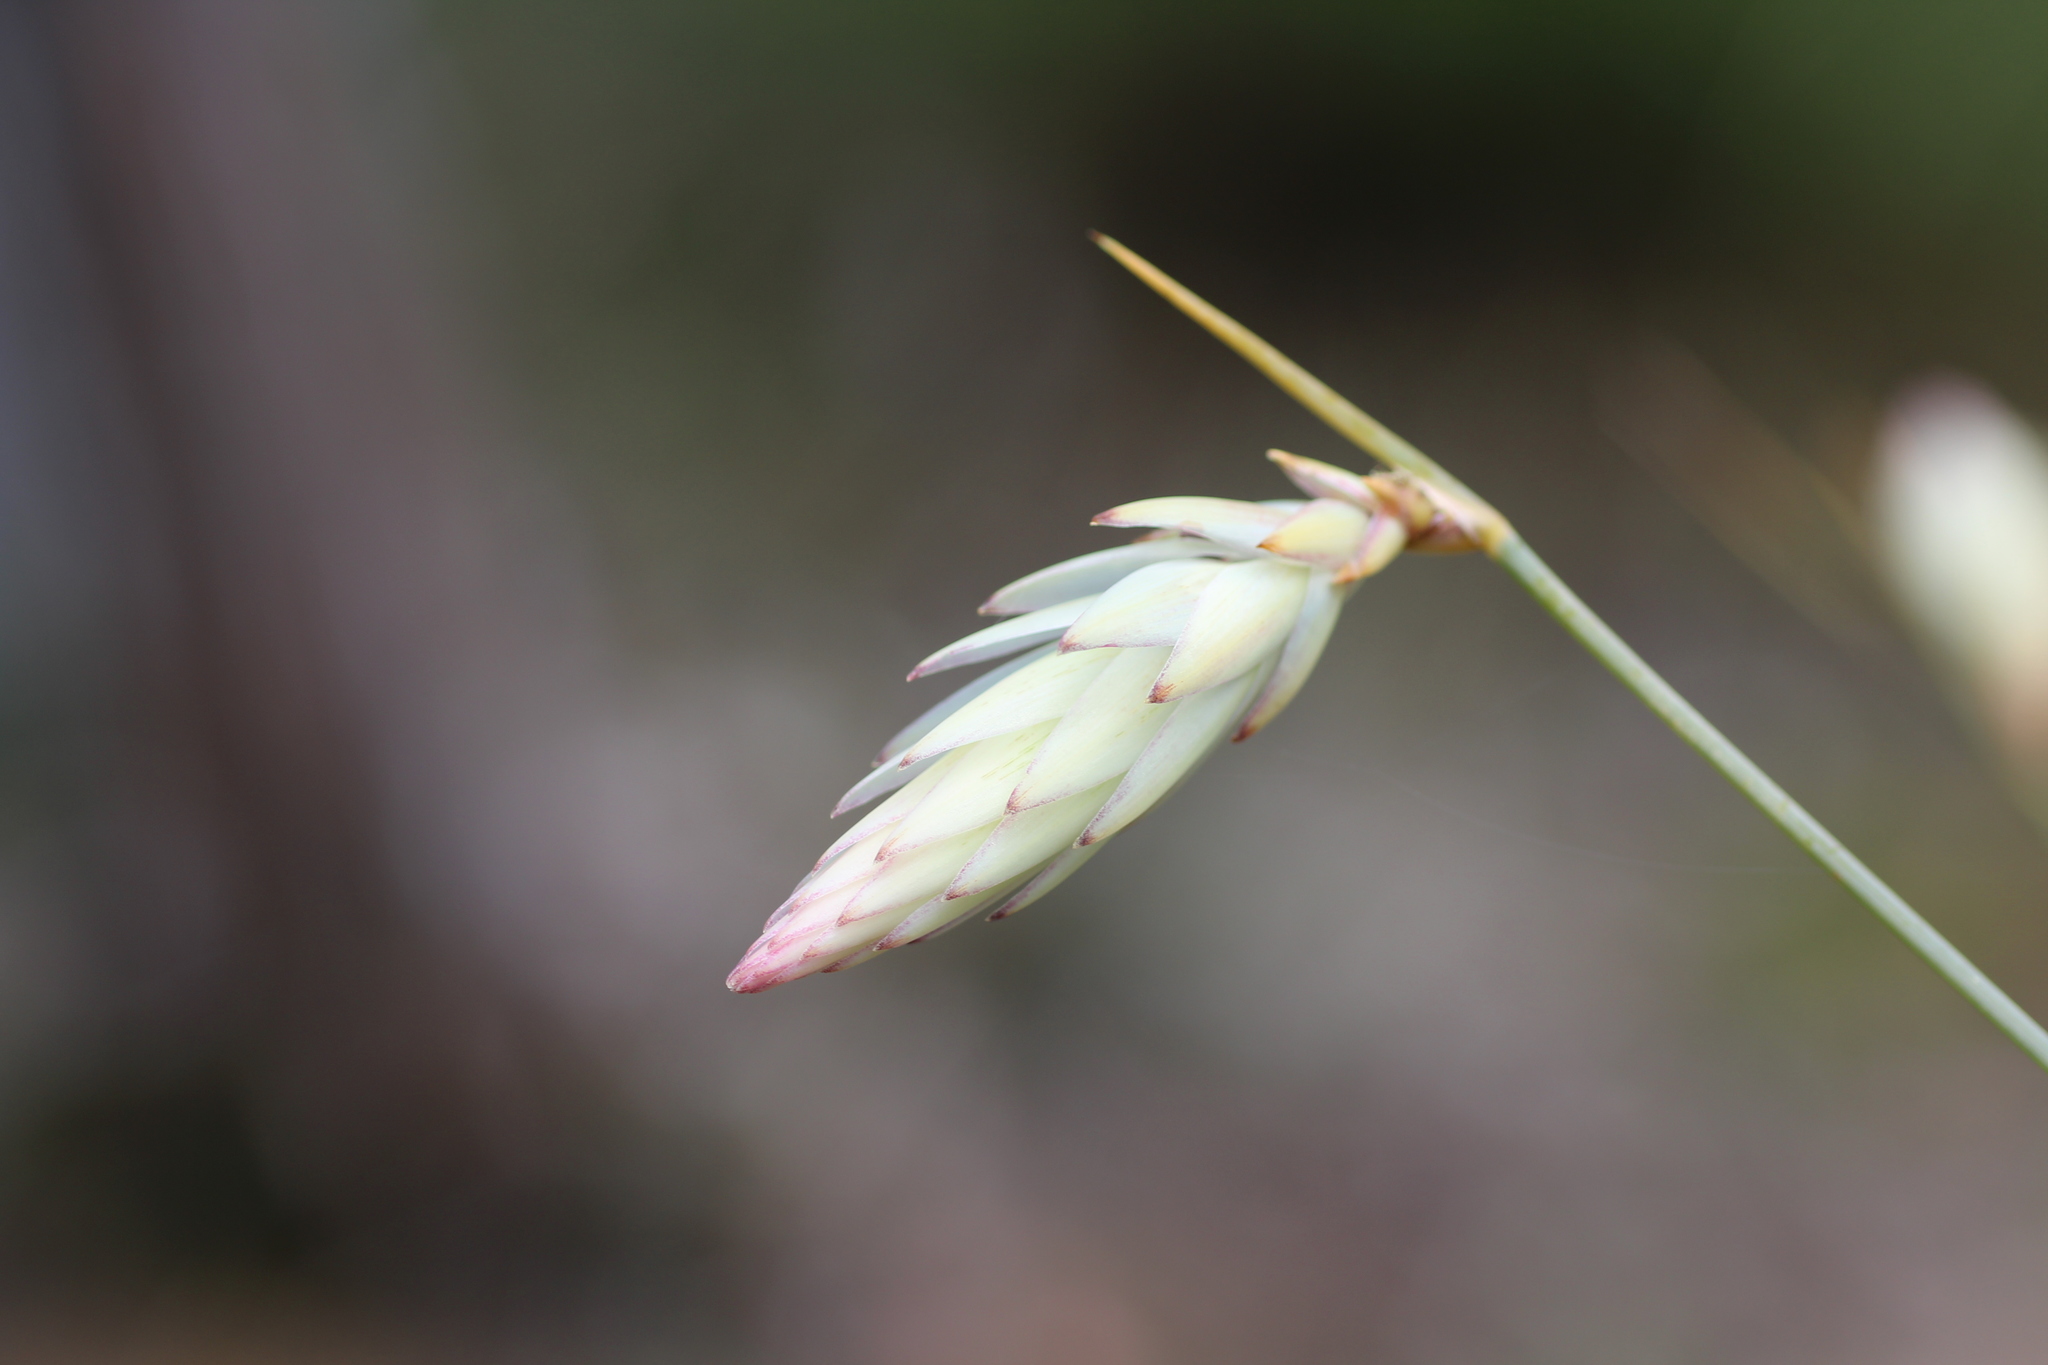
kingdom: Plantae
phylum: Tracheophyta
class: Liliopsida
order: Asparagales
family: Asphodelaceae
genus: Johnsonia
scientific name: Johnsonia lupulina
